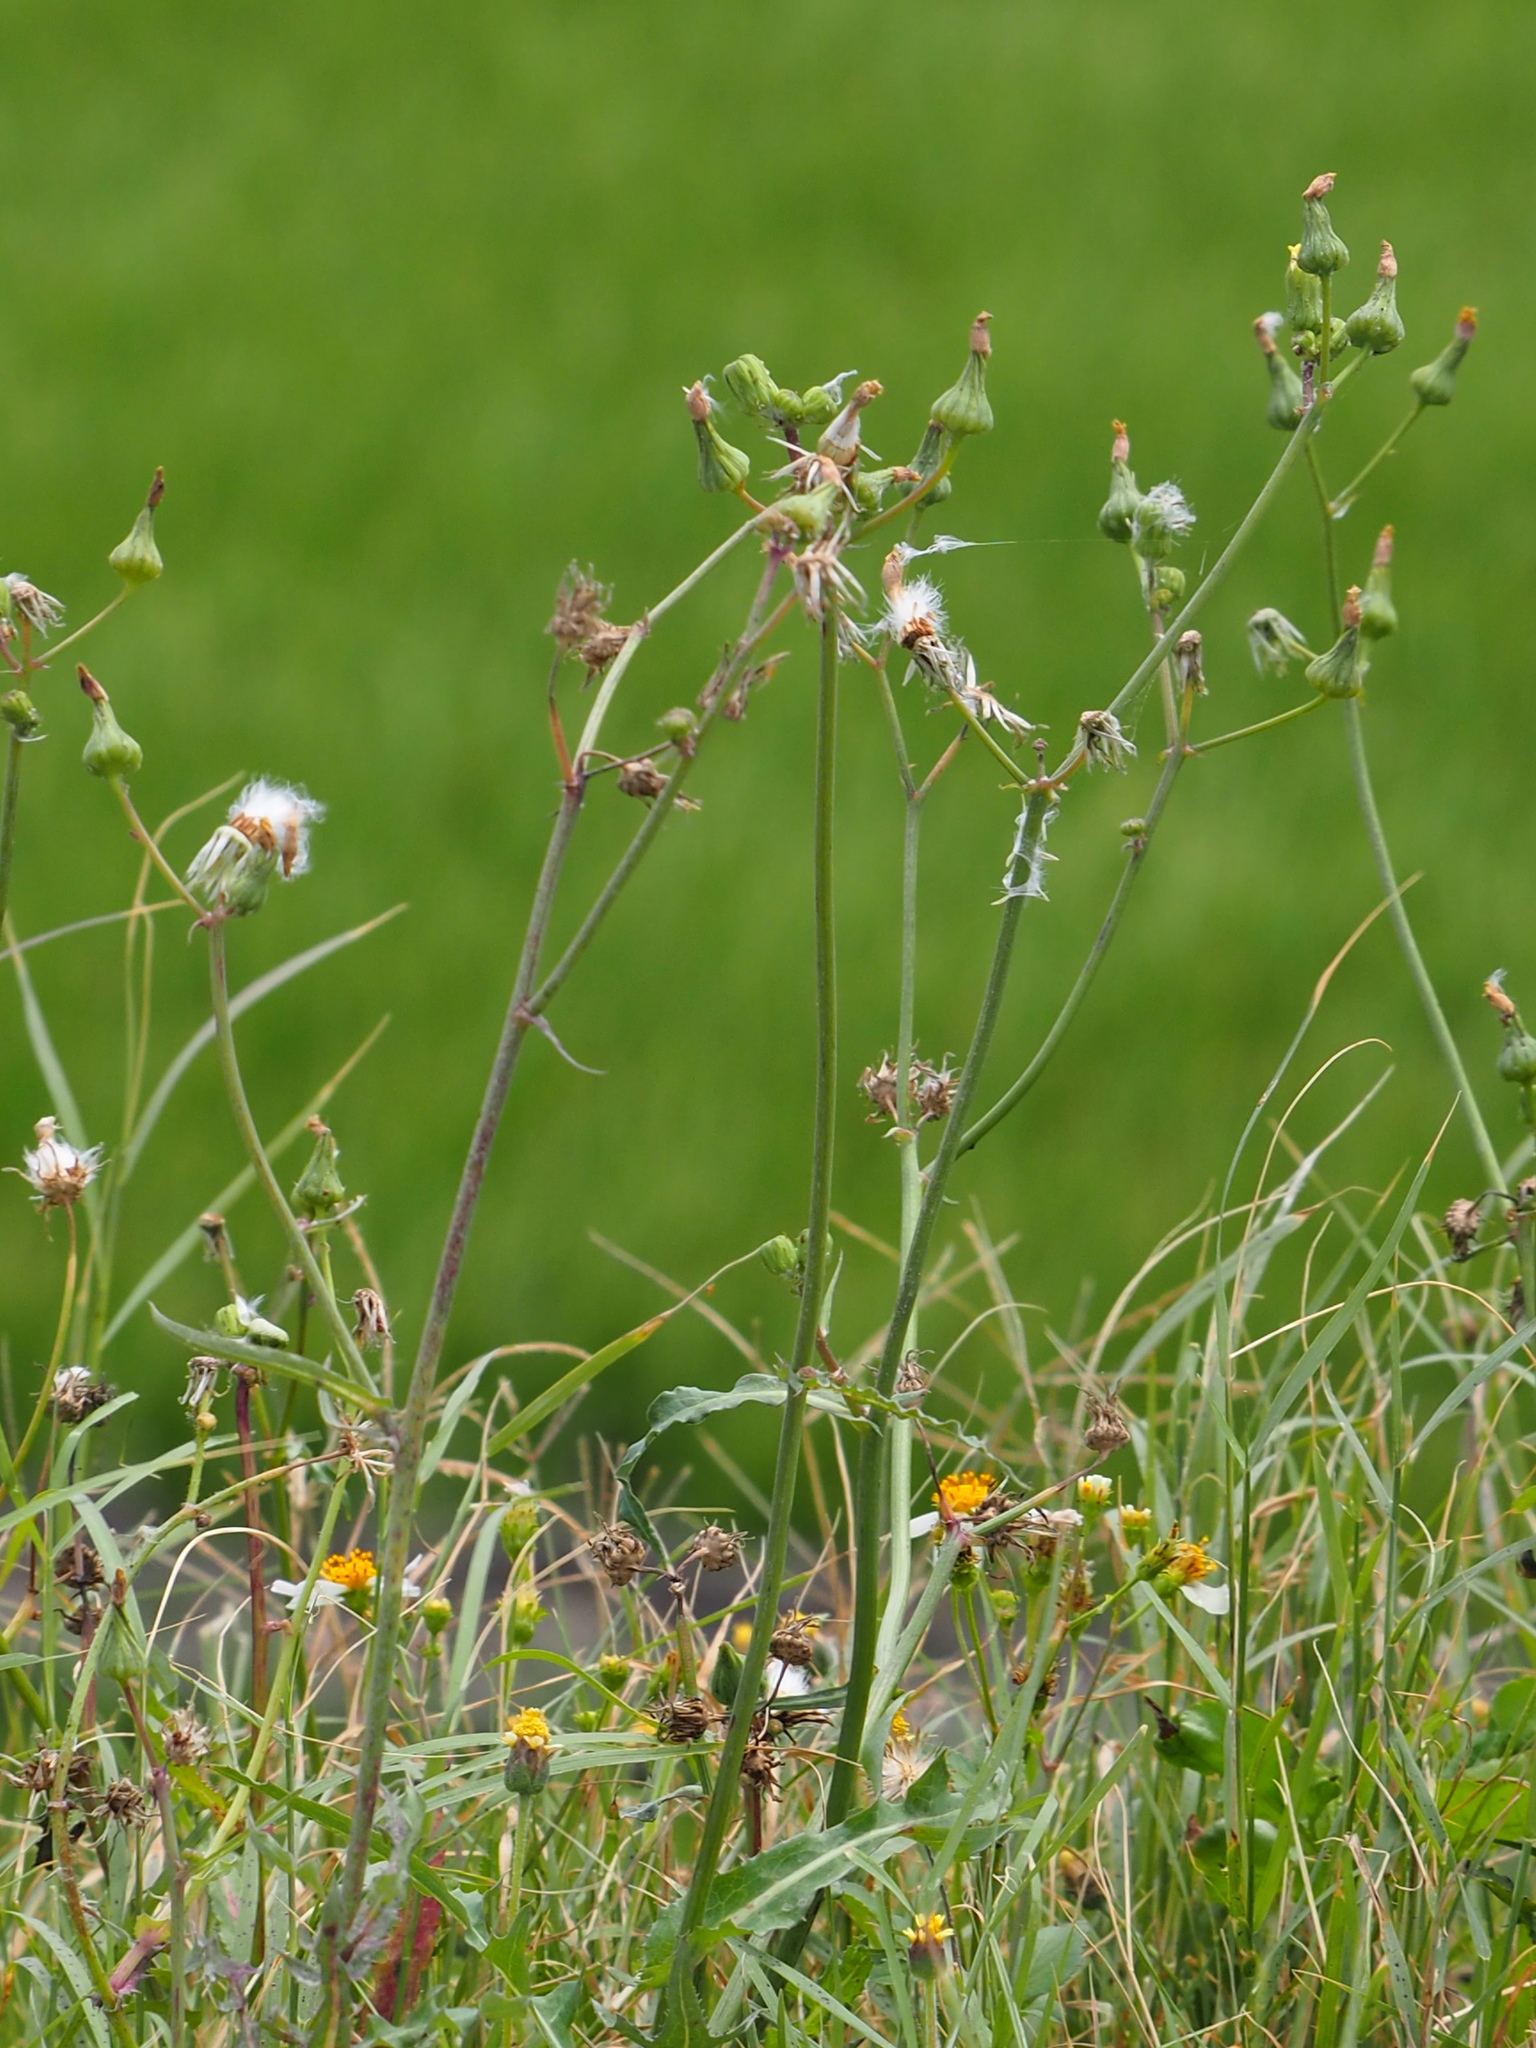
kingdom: Plantae
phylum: Tracheophyta
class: Magnoliopsida
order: Asterales
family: Asteraceae
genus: Sonchus
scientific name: Sonchus oleraceus
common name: Common sowthistle
